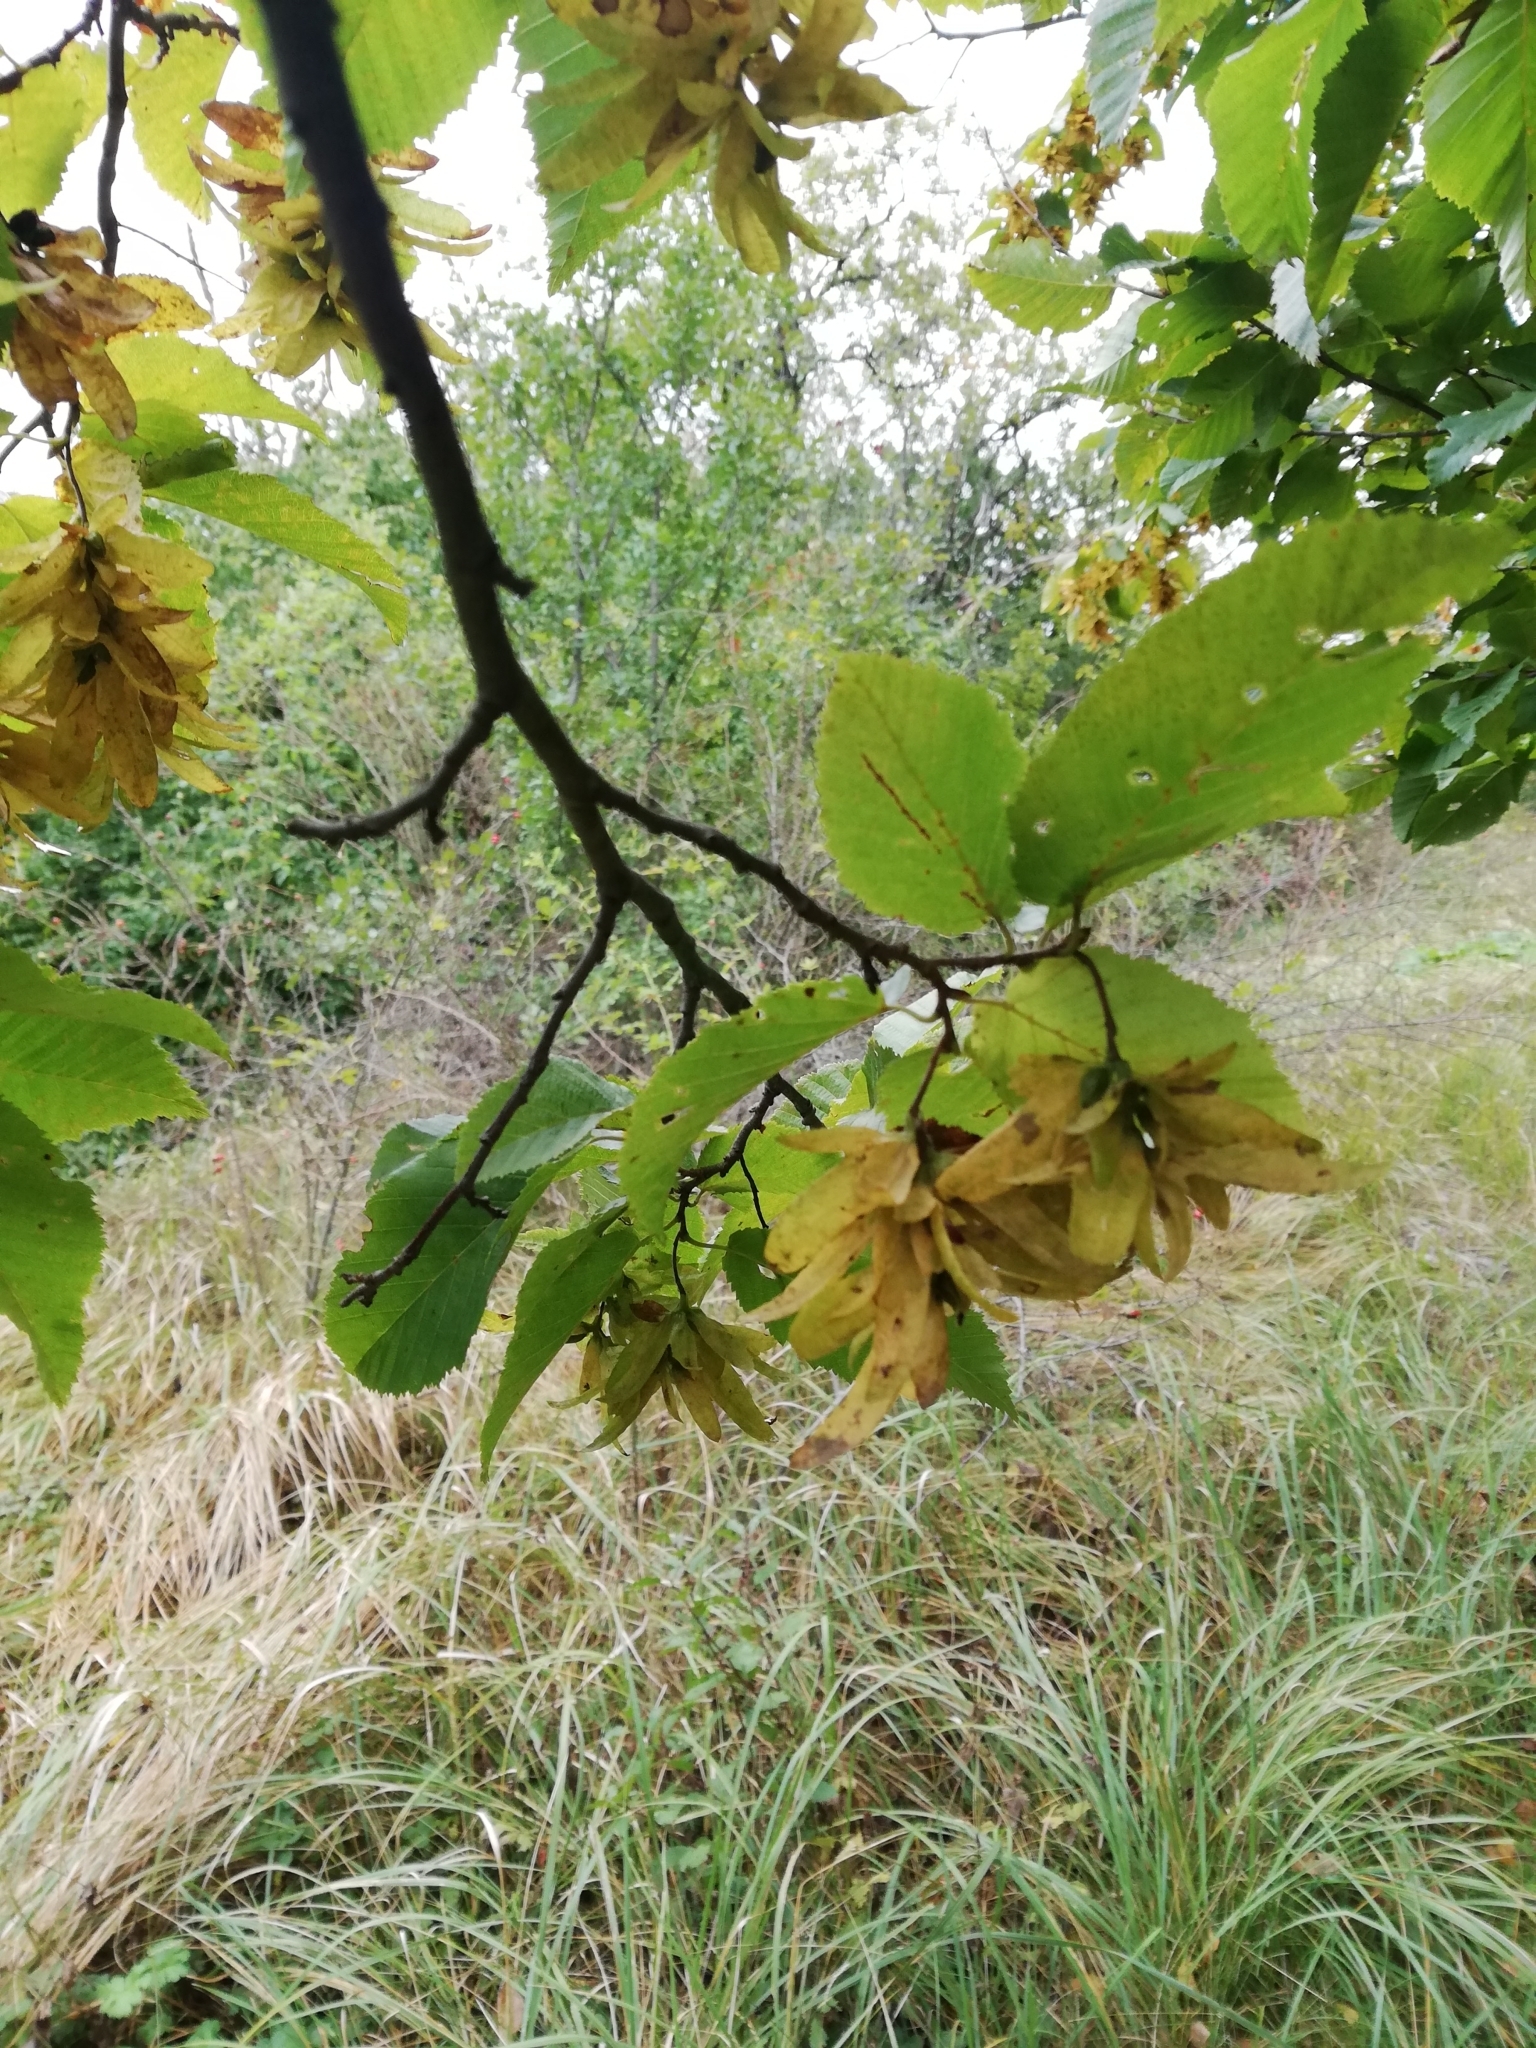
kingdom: Plantae
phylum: Tracheophyta
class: Magnoliopsida
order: Fagales
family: Betulaceae
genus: Carpinus
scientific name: Carpinus betulus
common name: Hornbeam
